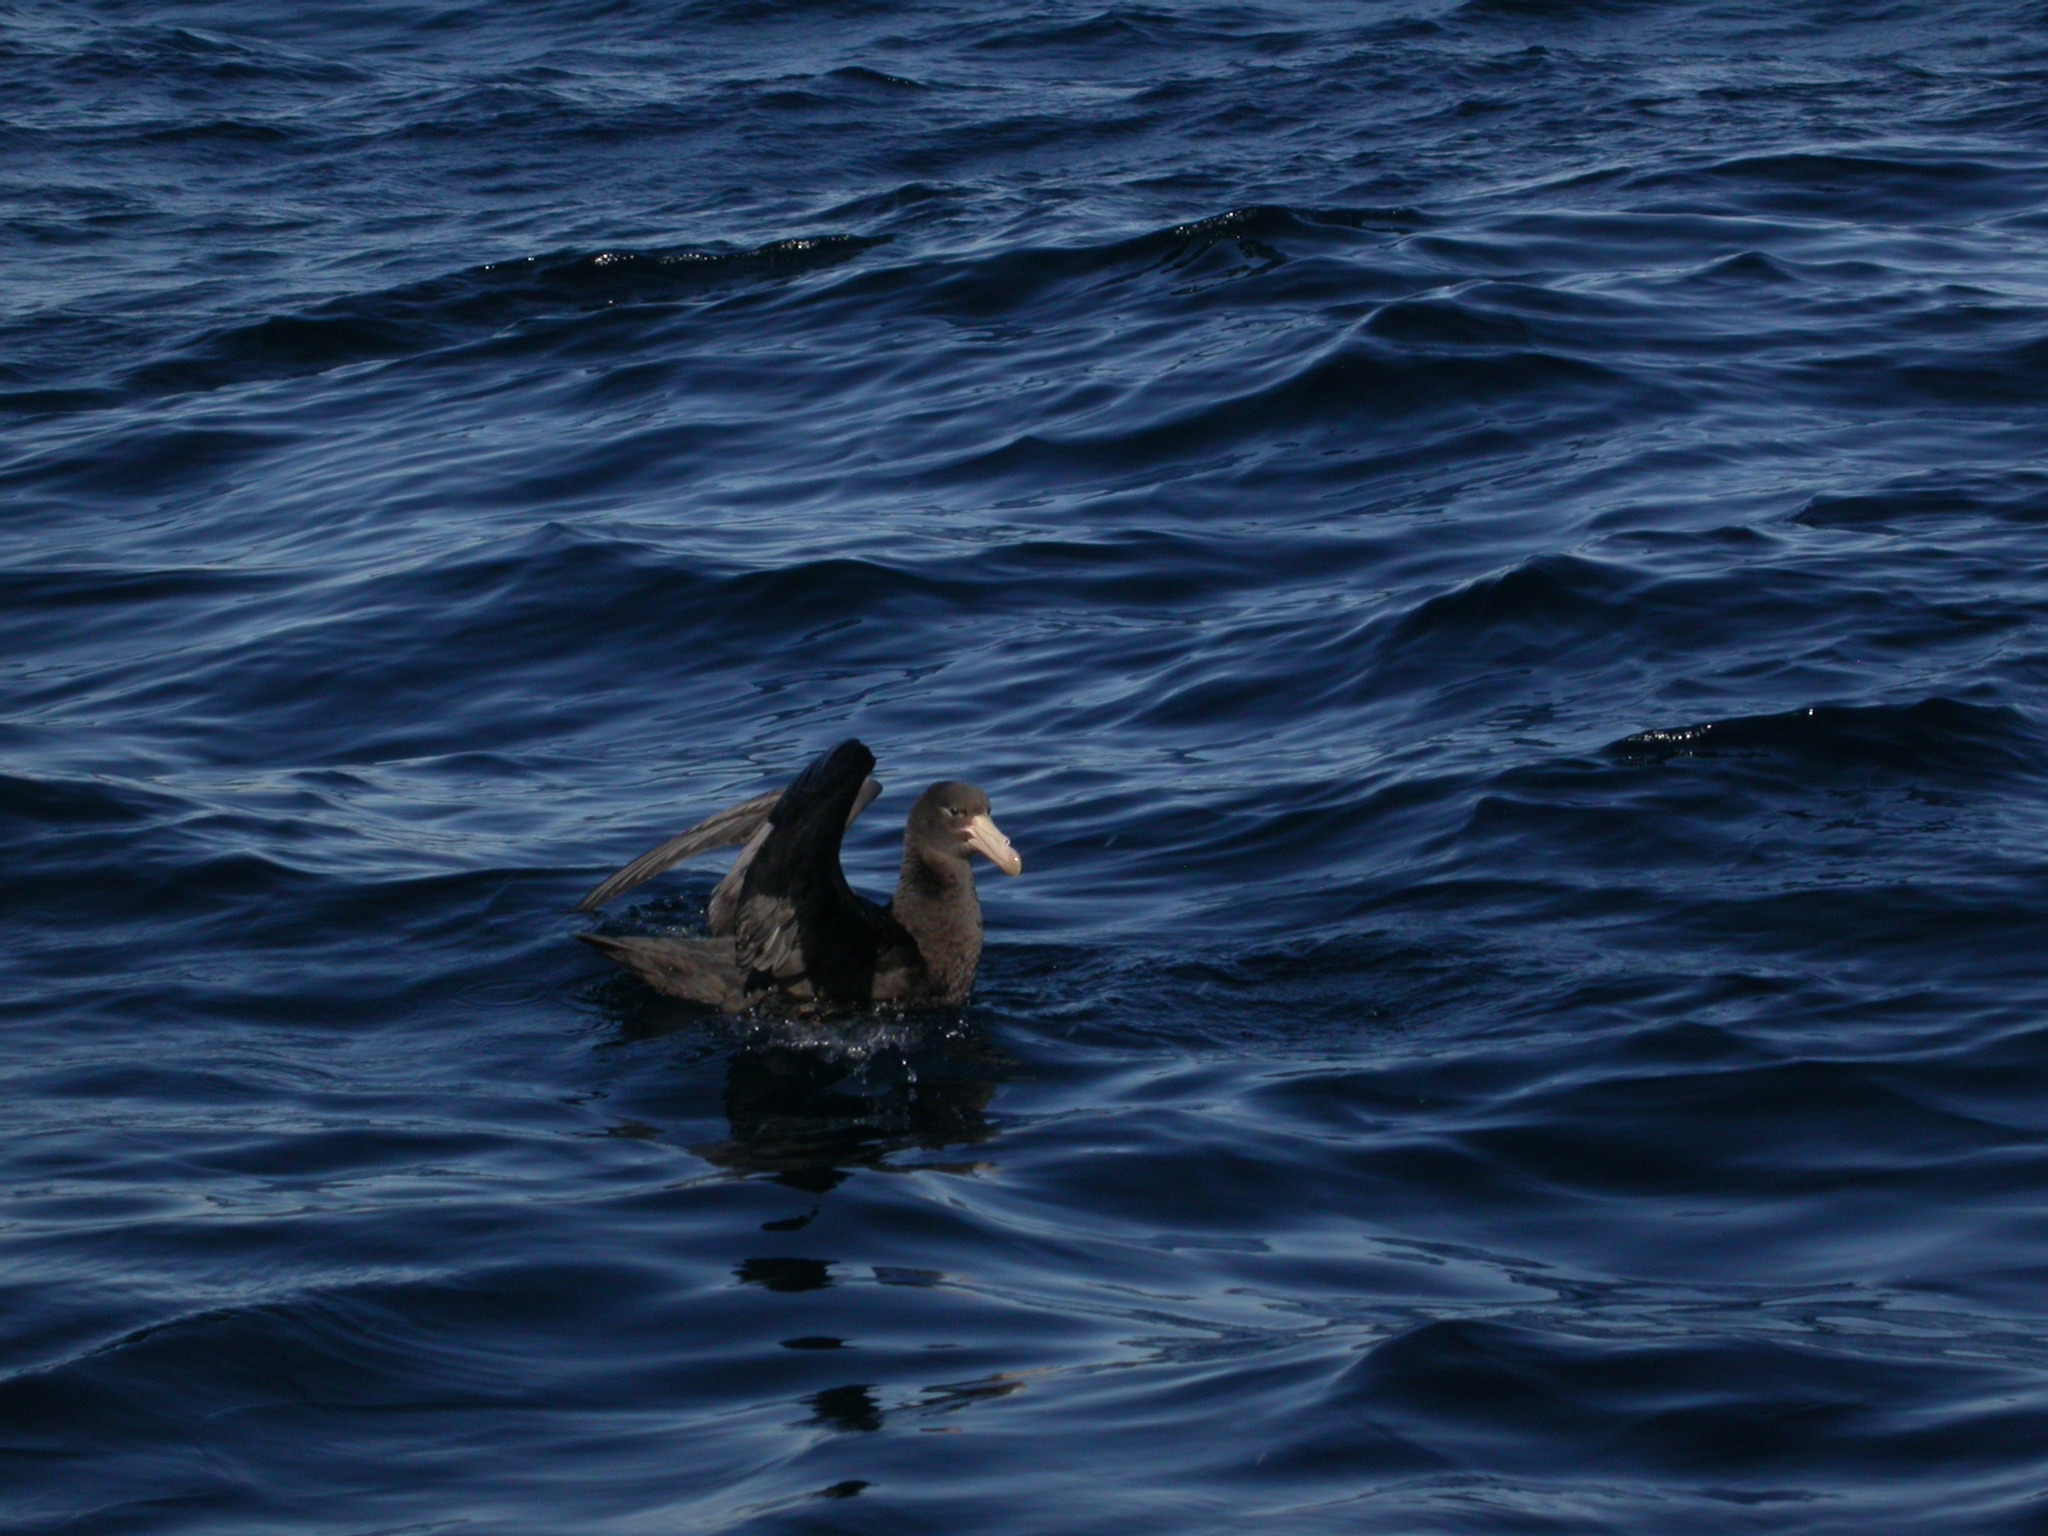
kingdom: Animalia
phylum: Chordata
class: Aves
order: Procellariiformes
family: Procellariidae
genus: Macronectes
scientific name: Macronectes halli
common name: Northern giant petrel
